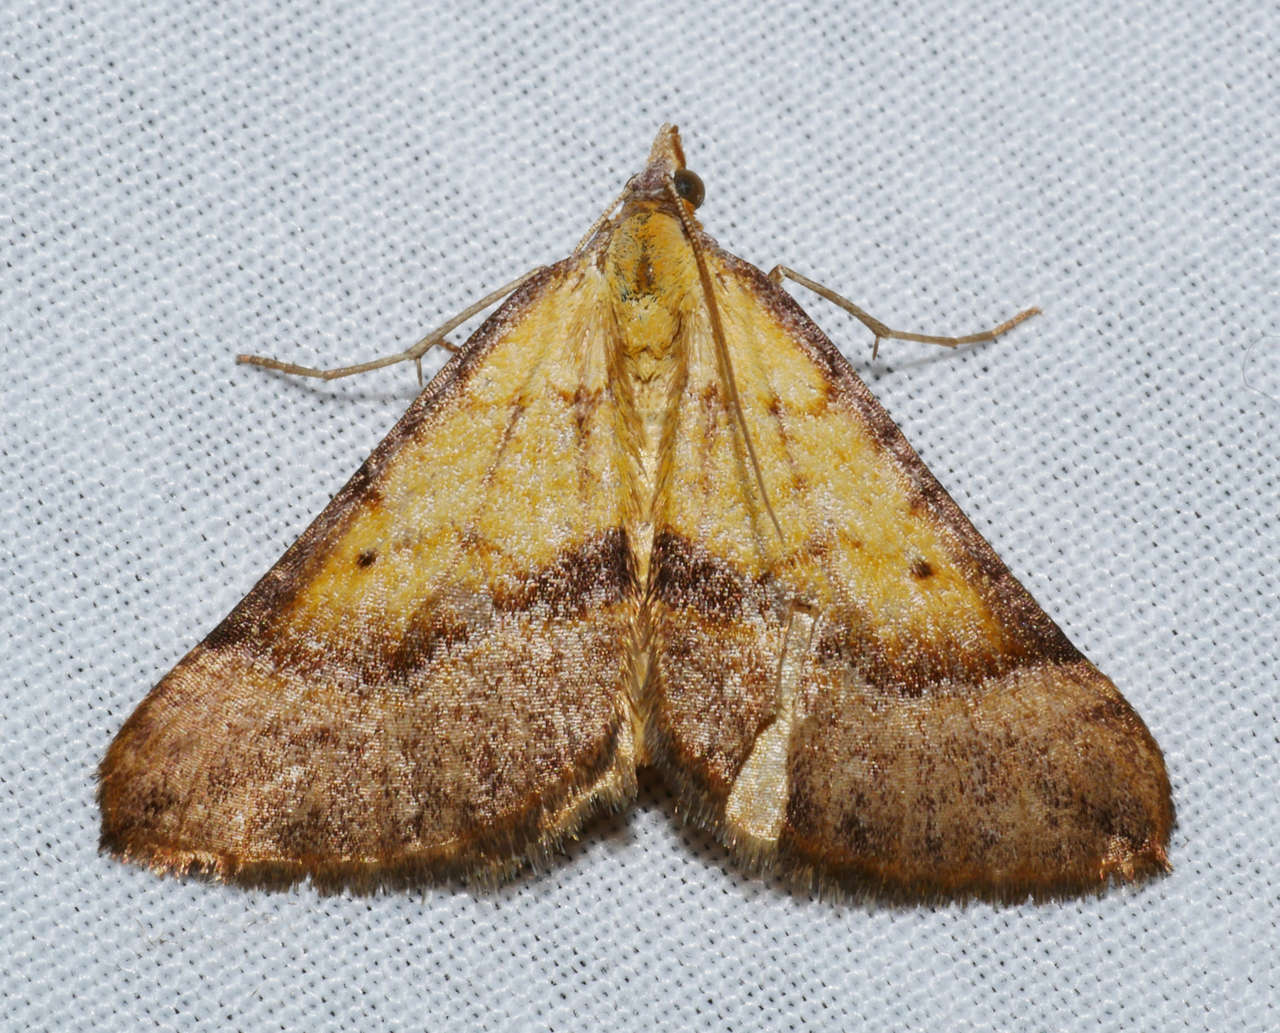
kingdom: Animalia
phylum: Arthropoda
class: Insecta
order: Lepidoptera
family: Geometridae
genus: Anachloris
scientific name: Anachloris subochraria
